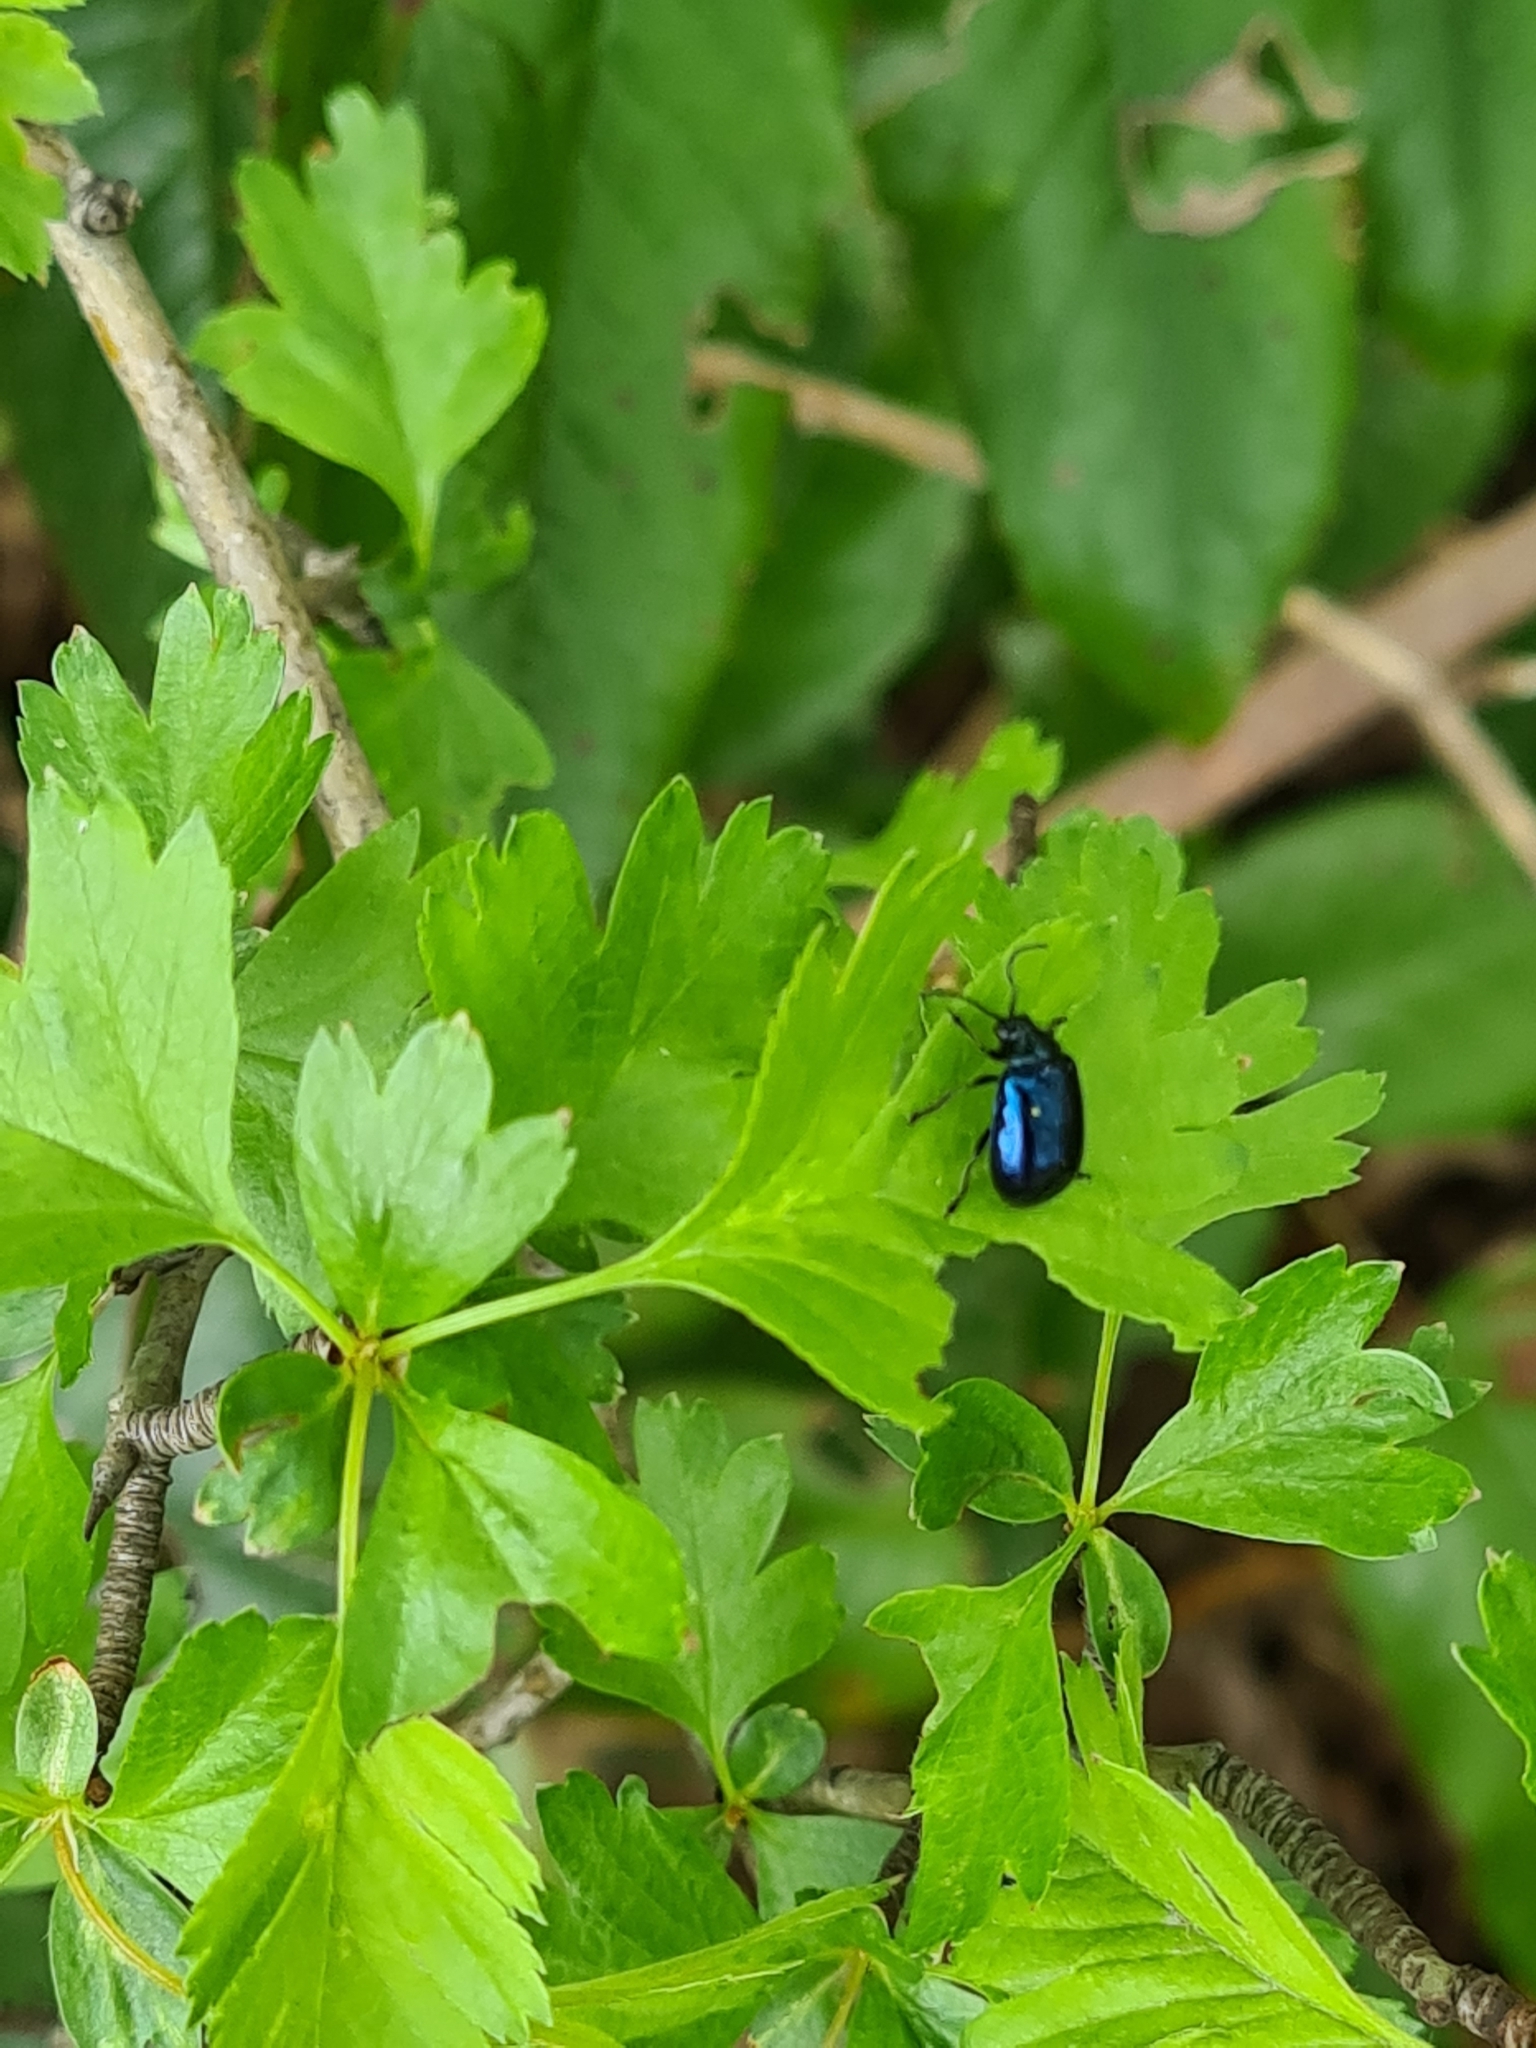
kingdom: Animalia
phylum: Arthropoda
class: Insecta
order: Coleoptera
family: Chrysomelidae
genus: Agelastica
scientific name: Agelastica alni
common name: Alder leaf beetle
